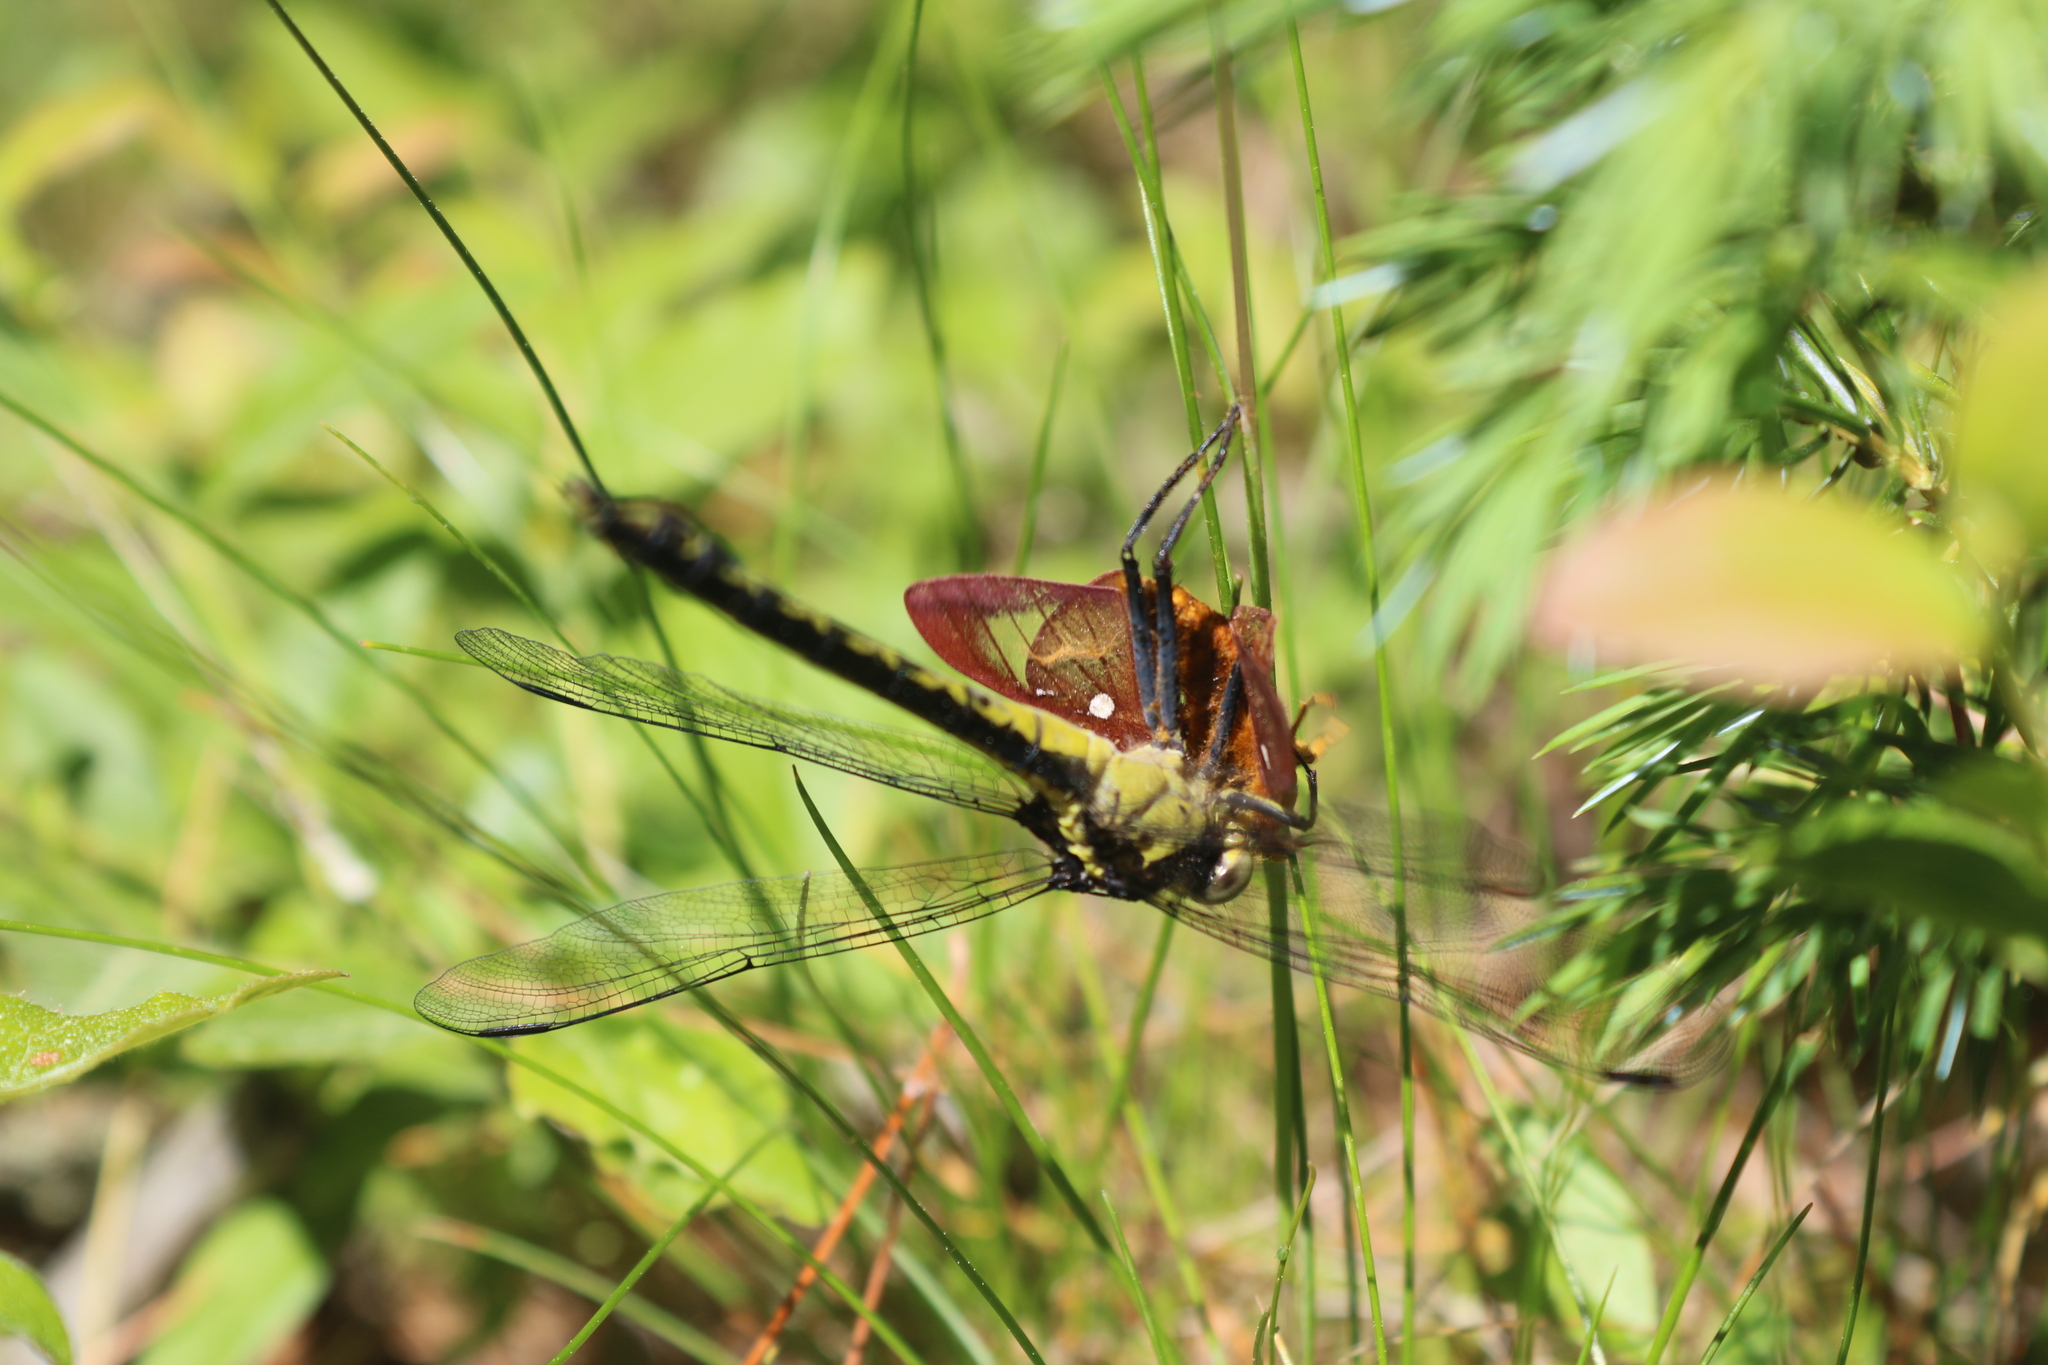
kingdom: Animalia
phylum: Arthropoda
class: Insecta
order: Lepidoptera
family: Saturniidae
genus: Anisota
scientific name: Anisota virginiensis
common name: Pink striped oakworm moth
